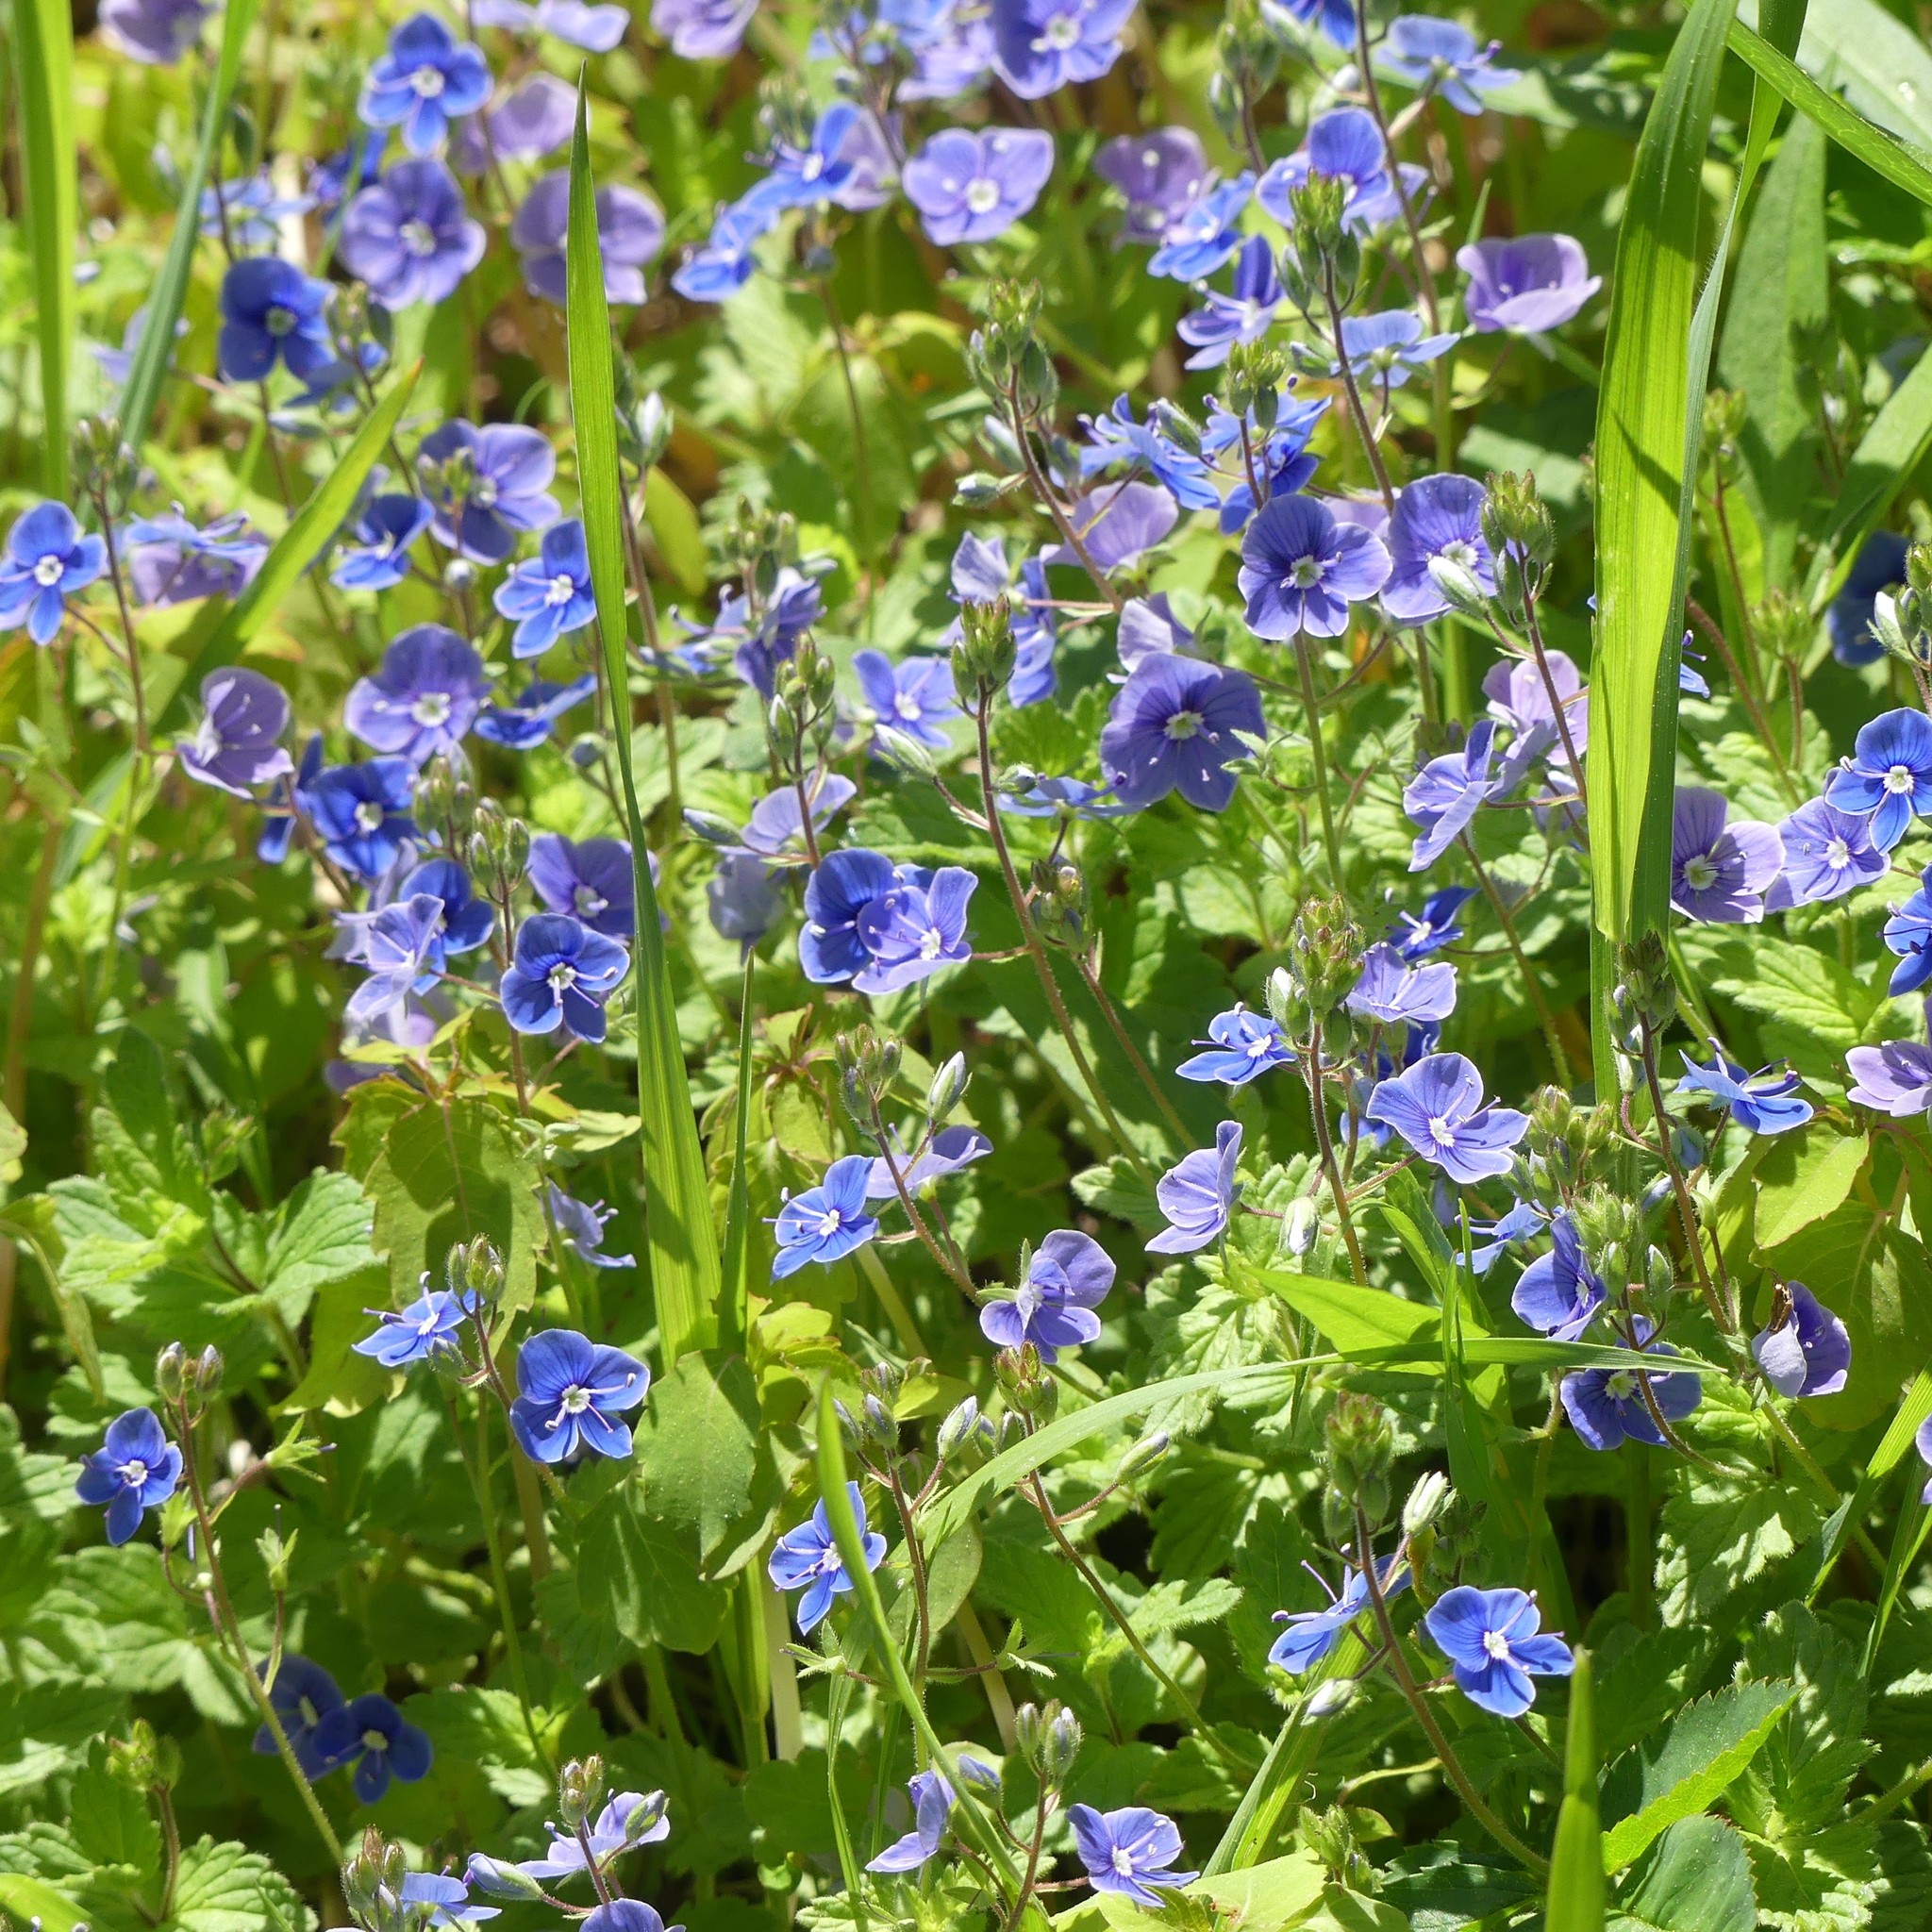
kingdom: Plantae
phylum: Tracheophyta
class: Magnoliopsida
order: Lamiales
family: Plantaginaceae
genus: Veronica
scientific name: Veronica chamaedrys
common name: Germander speedwell
